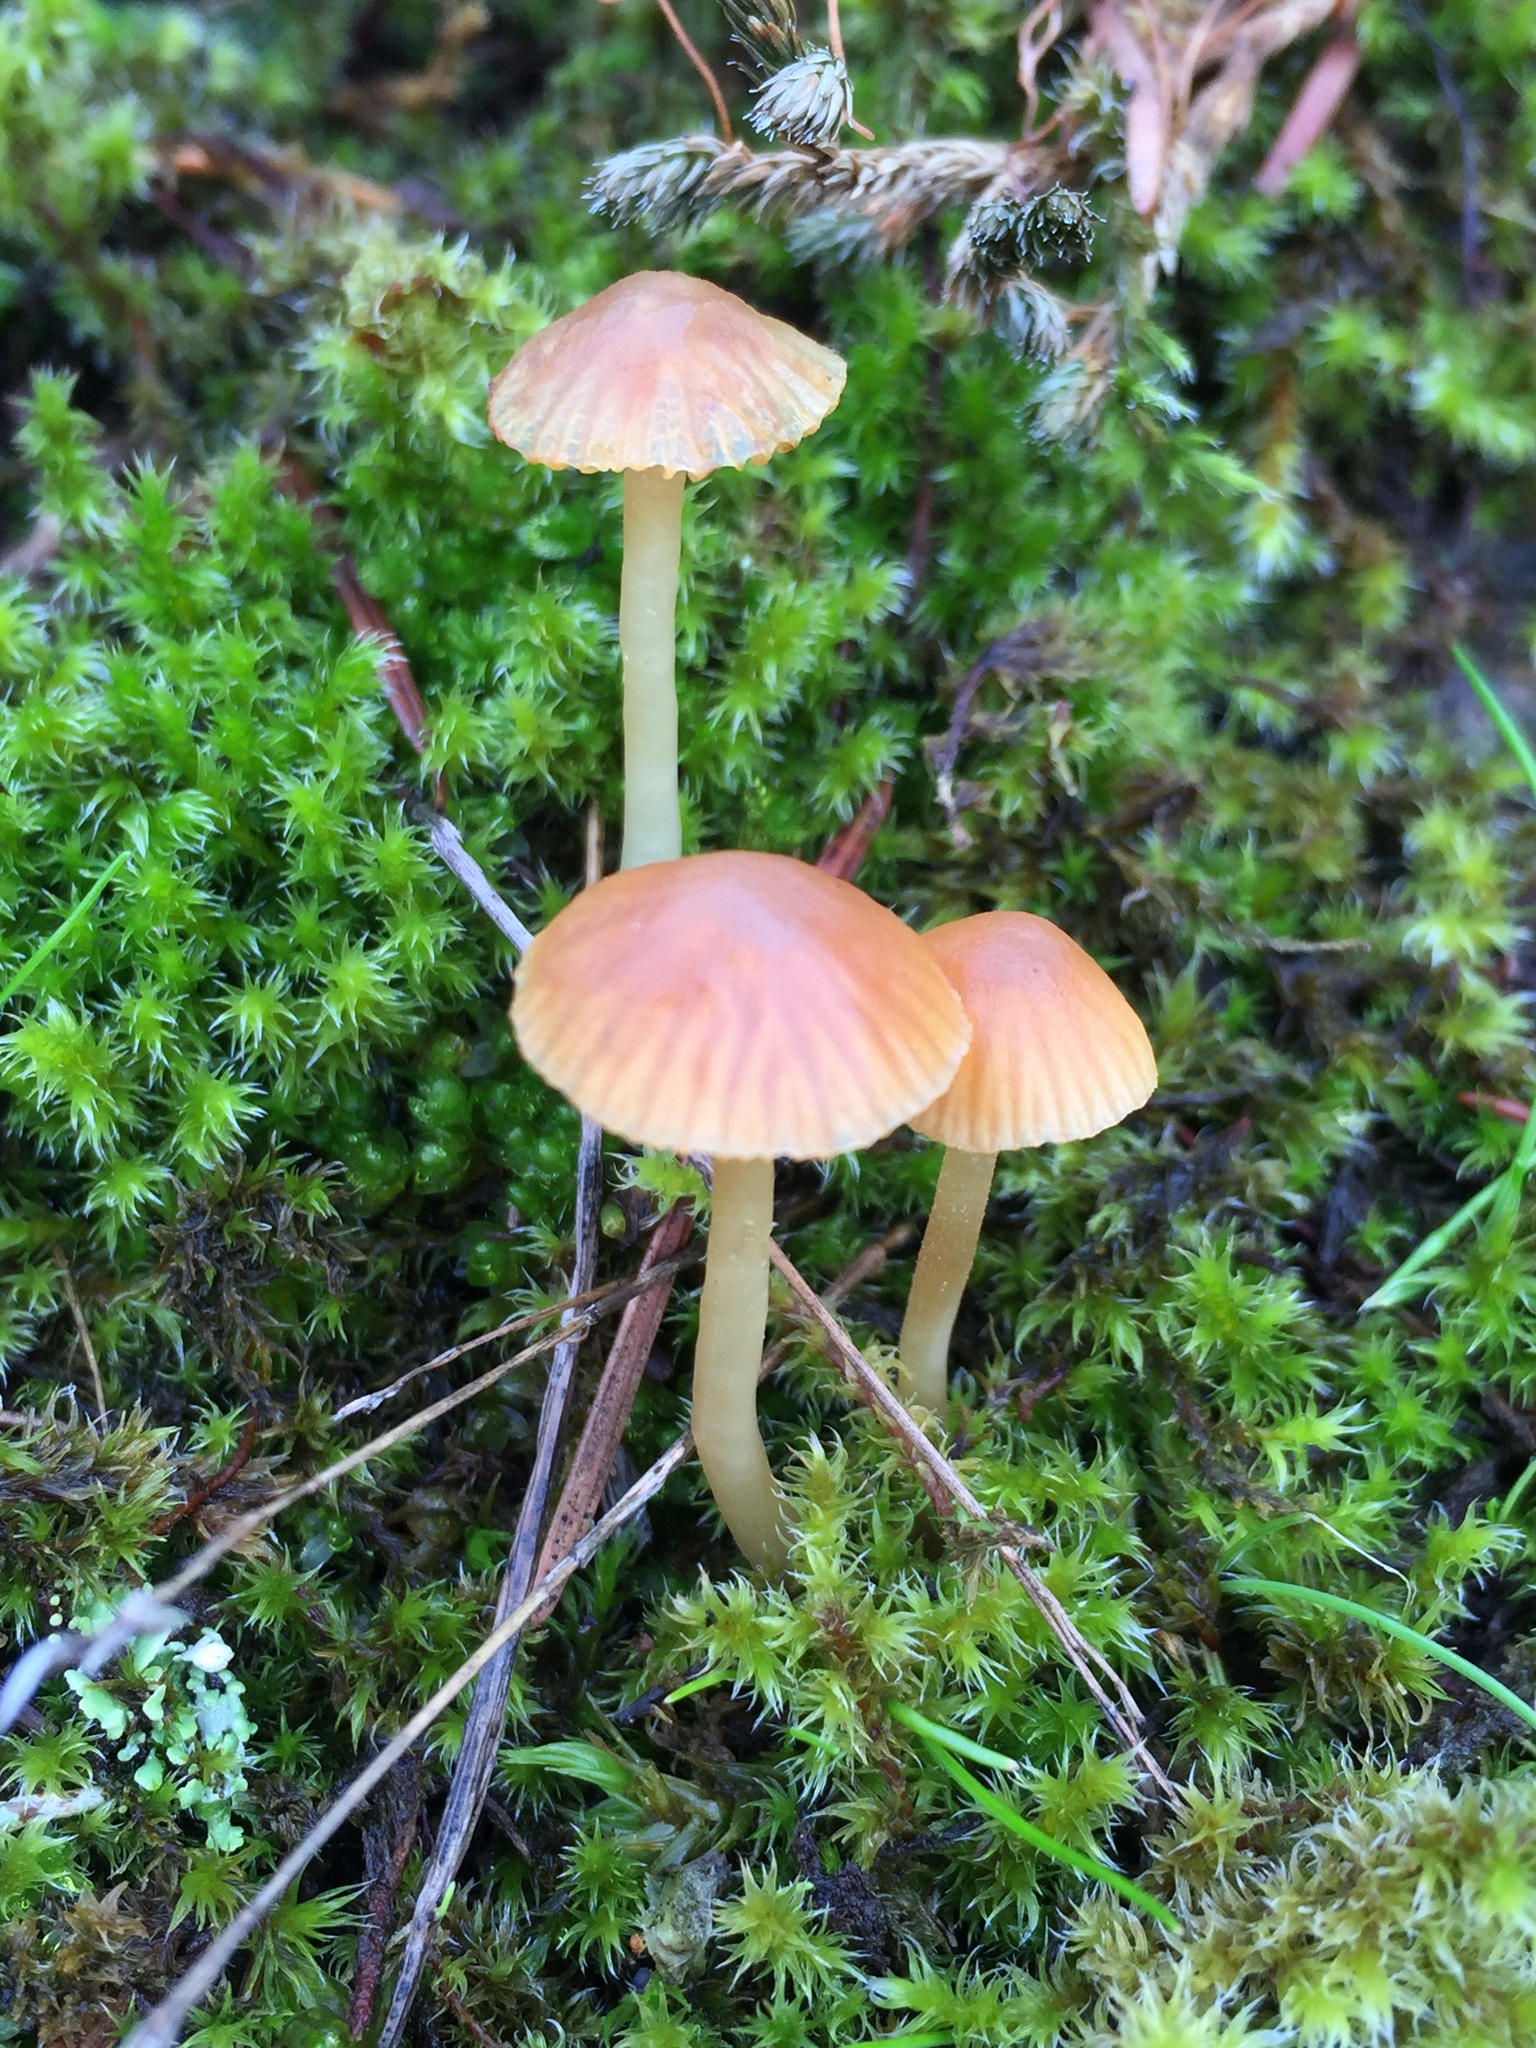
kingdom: Fungi
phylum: Basidiomycota
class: Agaricomycetes
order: Hymenochaetales
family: Rickenellaceae
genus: Rickenella
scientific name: Rickenella fibula
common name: Orange mosscap
